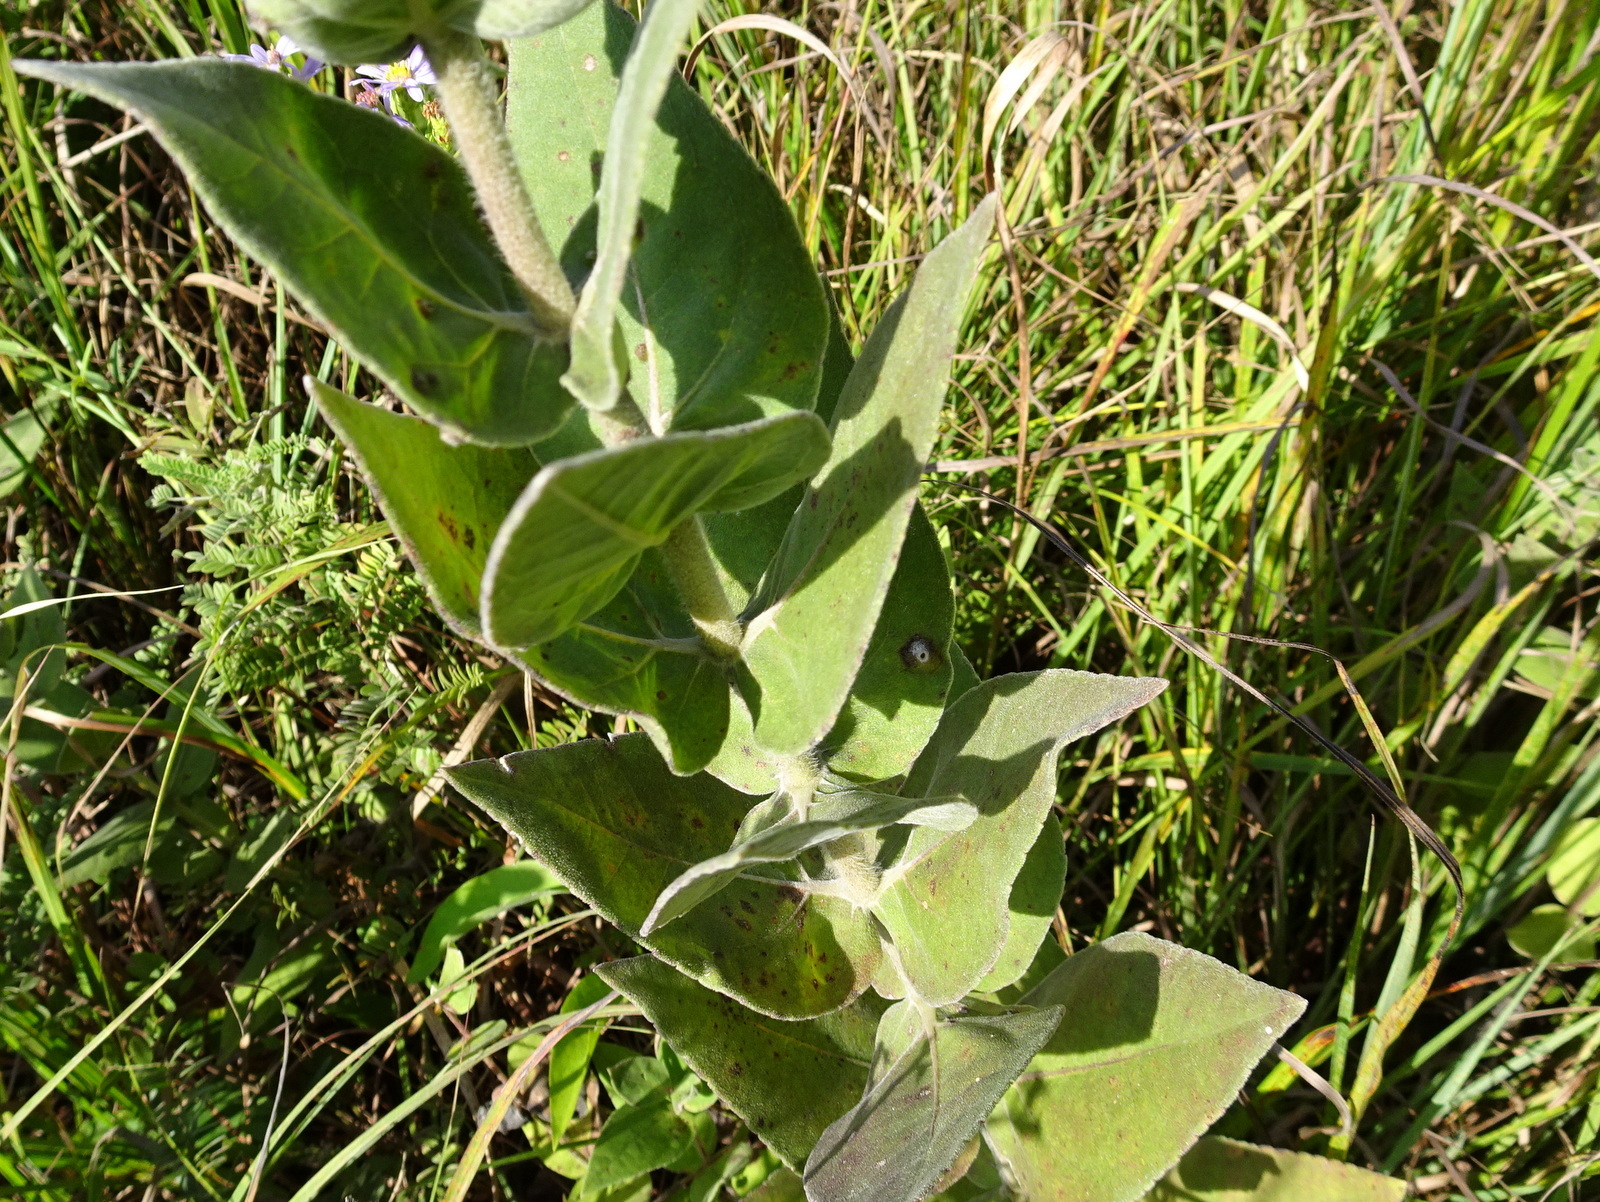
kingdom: Plantae
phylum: Tracheophyta
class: Magnoliopsida
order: Asterales
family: Asteraceae
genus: Helianthus
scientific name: Helianthus mollis
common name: Ashy sunflower
